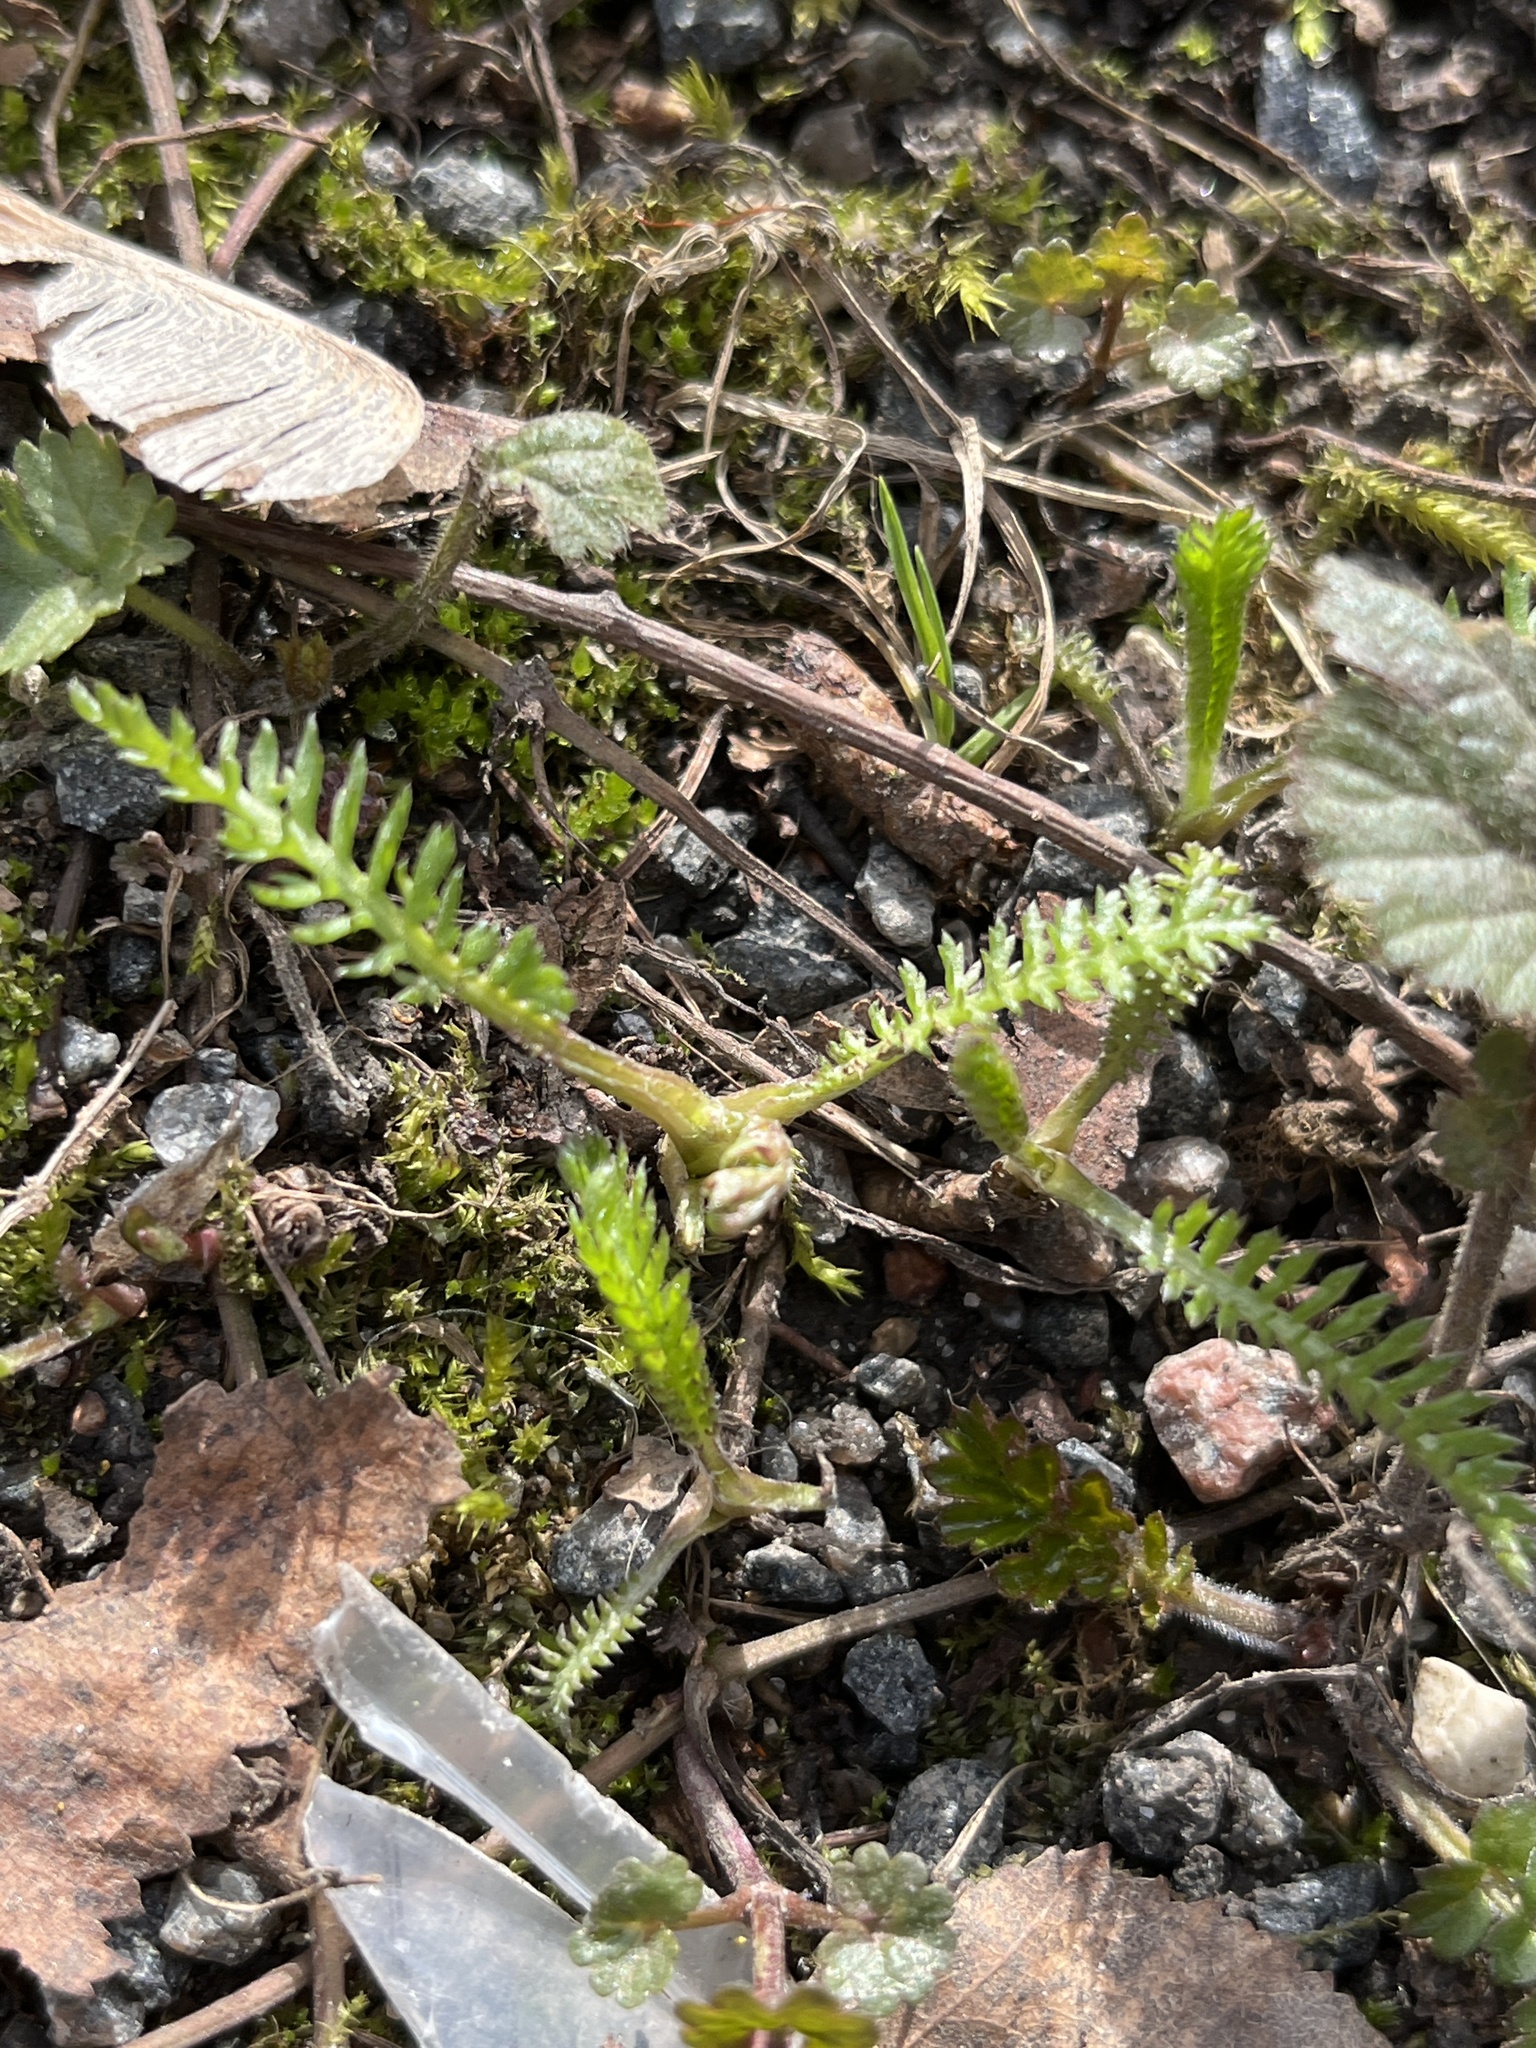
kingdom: Plantae
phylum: Tracheophyta
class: Magnoliopsida
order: Asterales
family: Asteraceae
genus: Achillea
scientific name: Achillea millefolium
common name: Yarrow
